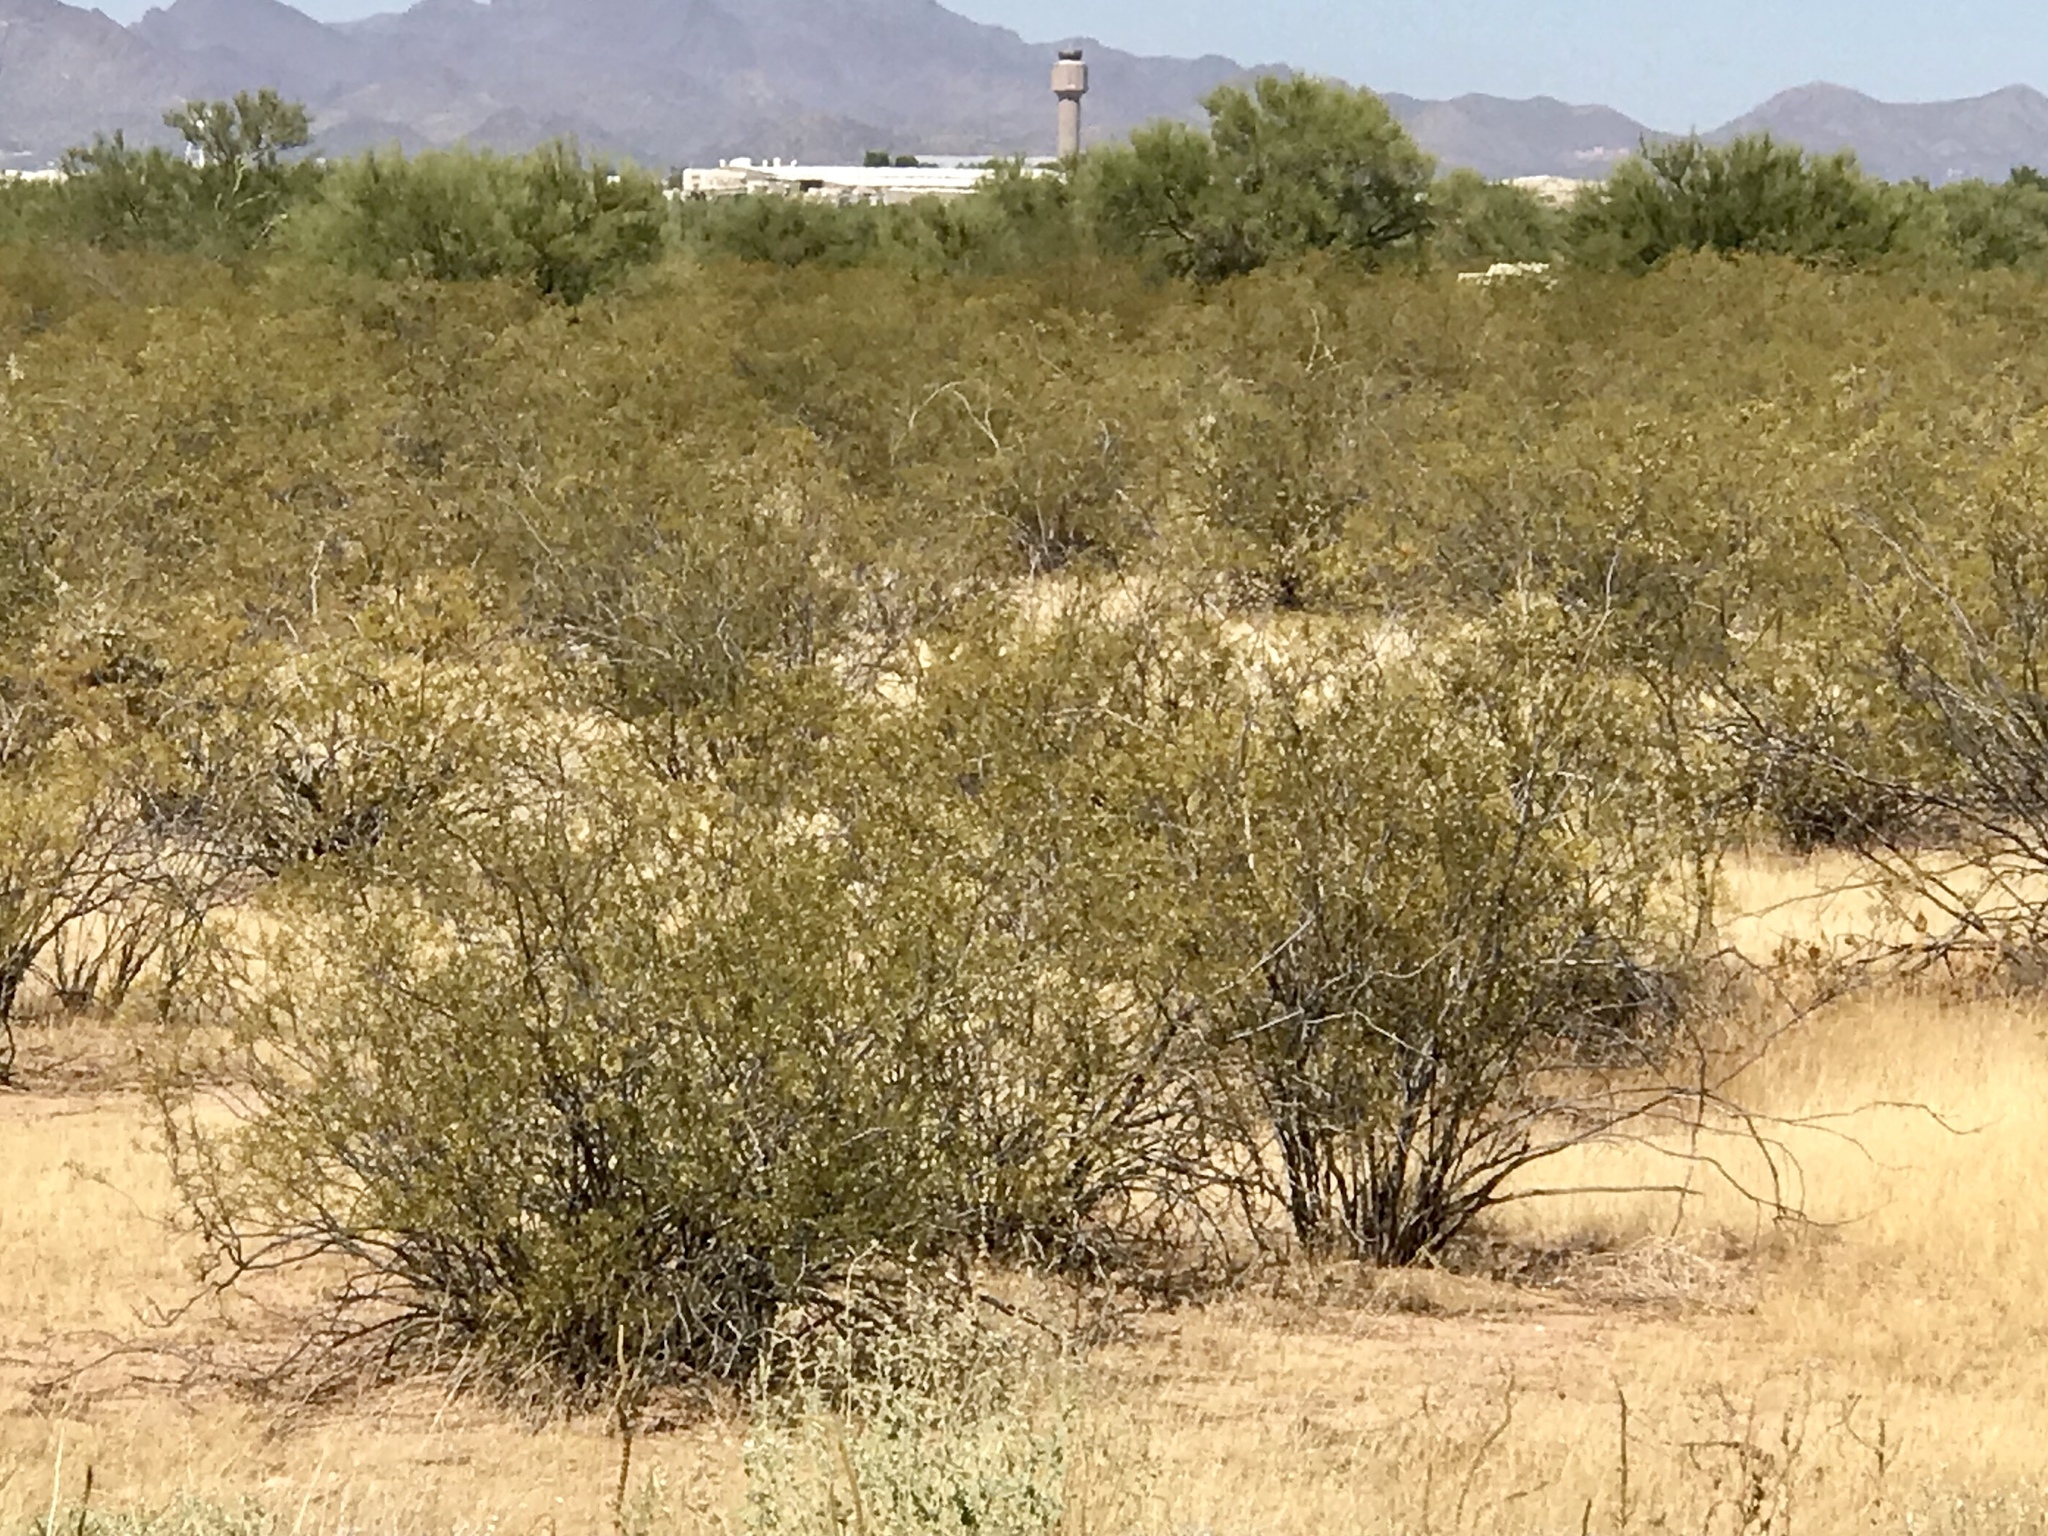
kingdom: Plantae
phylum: Tracheophyta
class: Magnoliopsida
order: Zygophyllales
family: Zygophyllaceae
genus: Larrea
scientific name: Larrea tridentata
